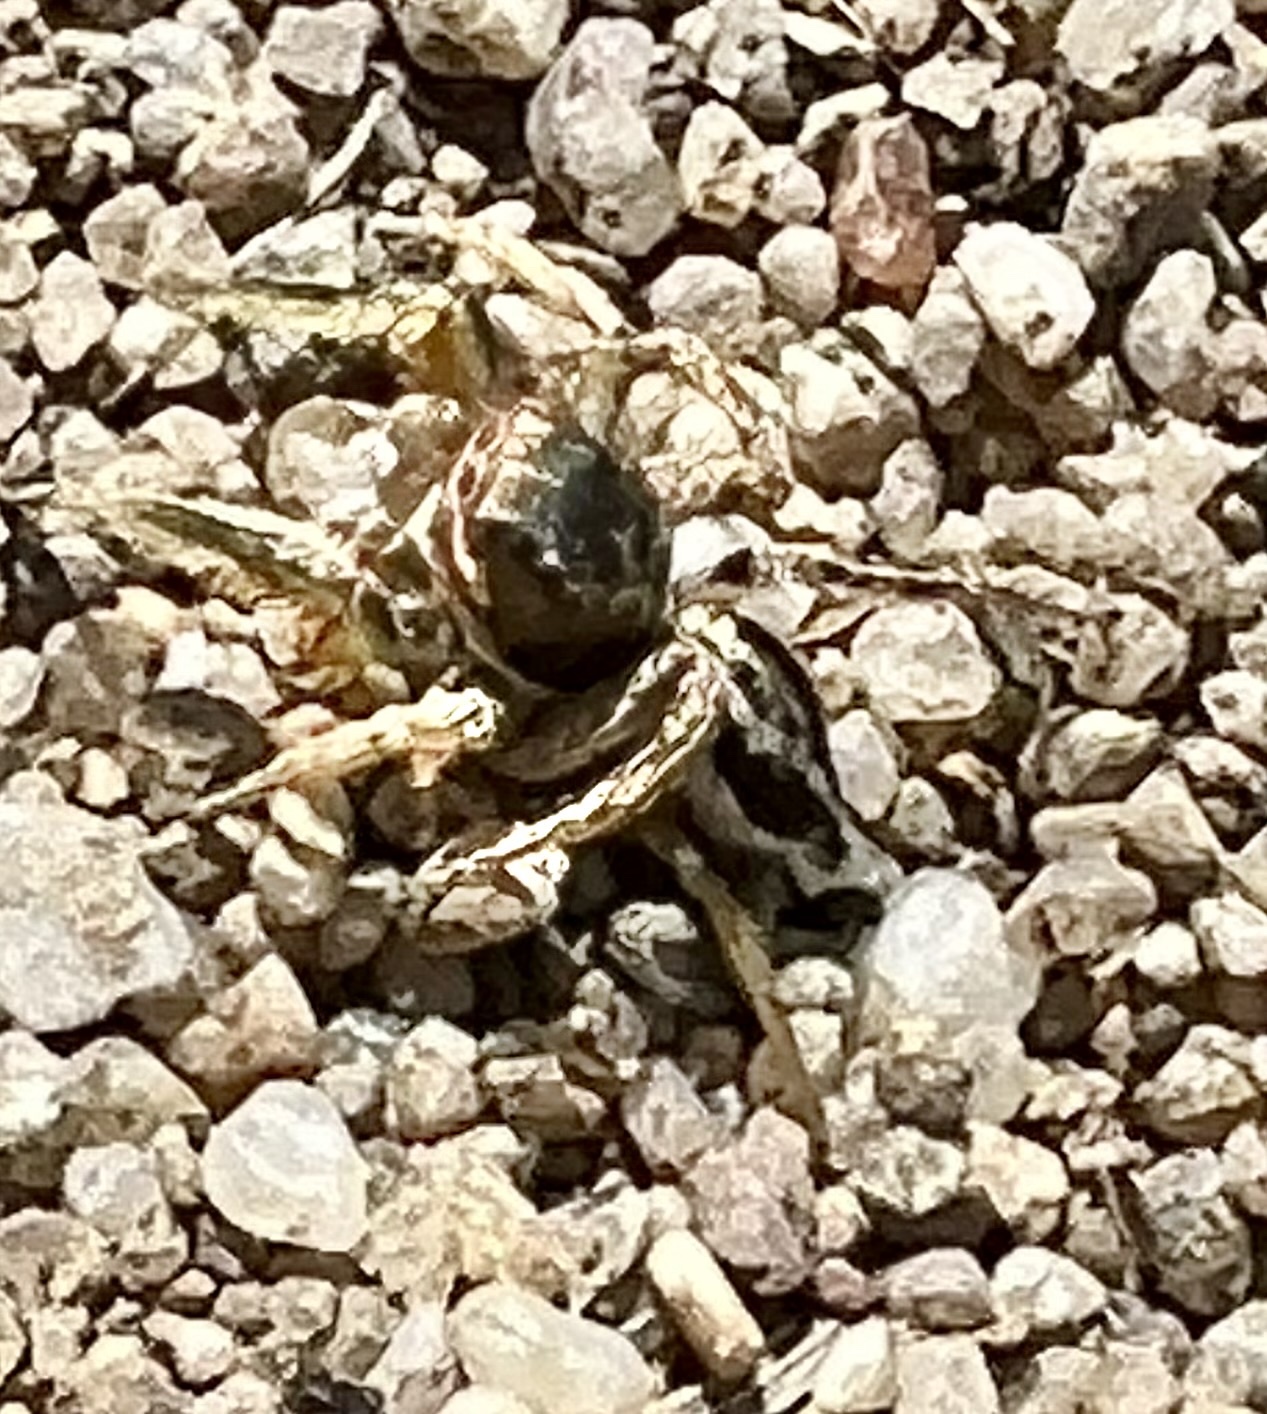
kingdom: Animalia
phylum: Arthropoda
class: Arachnida
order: Araneae
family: Salticidae
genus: Habronattus
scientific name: Habronattus mustaciatus
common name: Jumping spider
